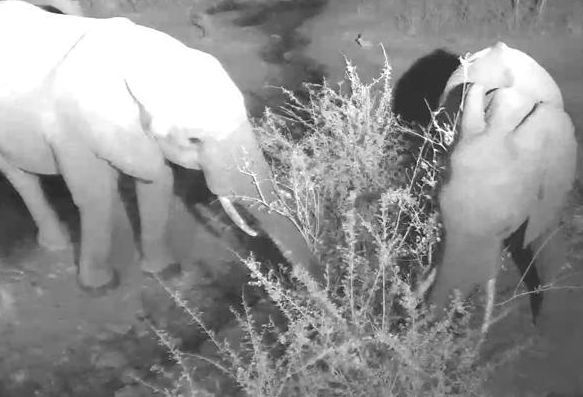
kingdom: Animalia
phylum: Chordata
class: Mammalia
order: Proboscidea
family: Elephantidae
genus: Loxodonta
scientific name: Loxodonta africana
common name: African elephant
